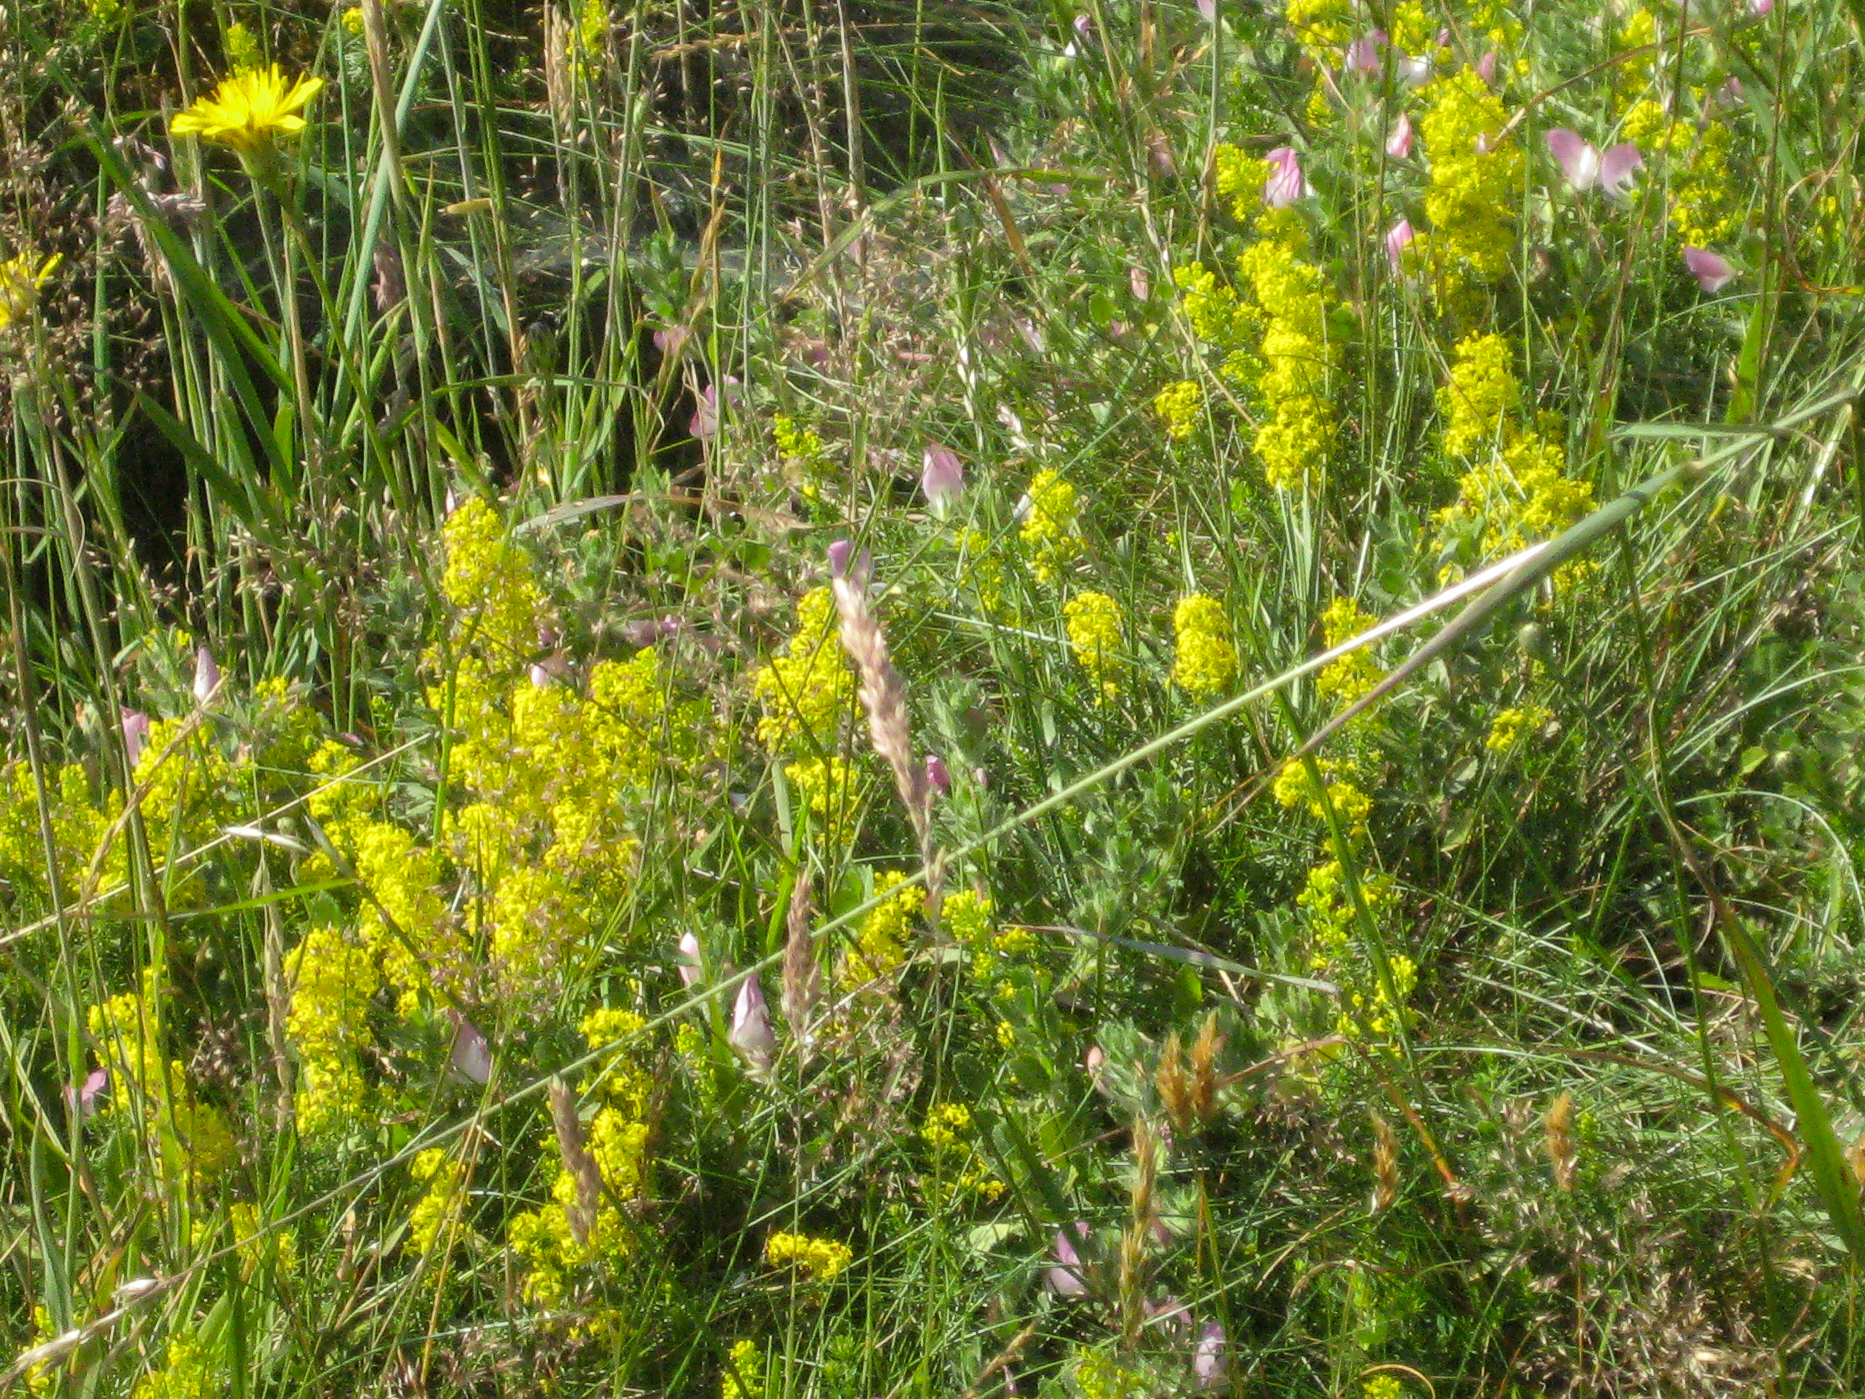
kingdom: Plantae
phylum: Tracheophyta
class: Magnoliopsida
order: Gentianales
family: Rubiaceae
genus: Galium
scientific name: Galium verum
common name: Lady's bedstraw
